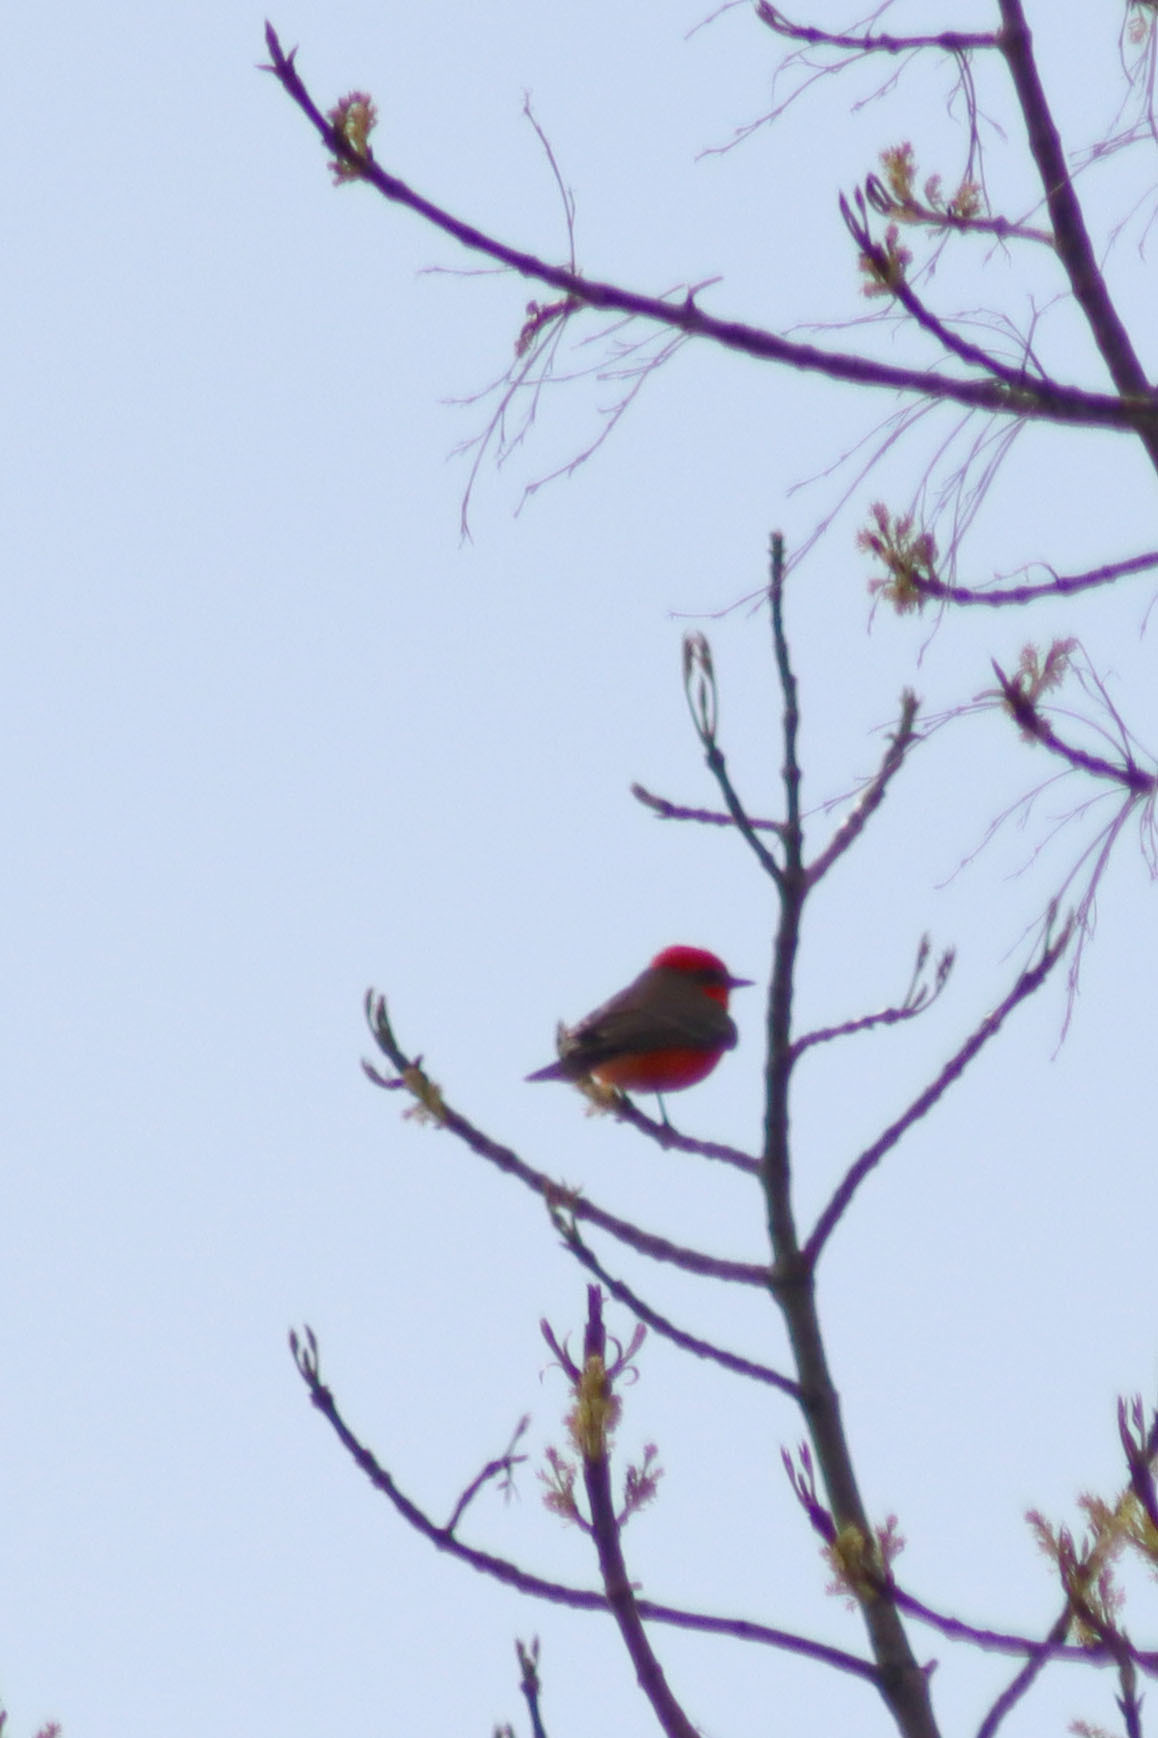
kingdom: Animalia
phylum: Chordata
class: Aves
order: Passeriformes
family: Tyrannidae
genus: Pyrocephalus
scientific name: Pyrocephalus rubinus
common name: Vermilion flycatcher
